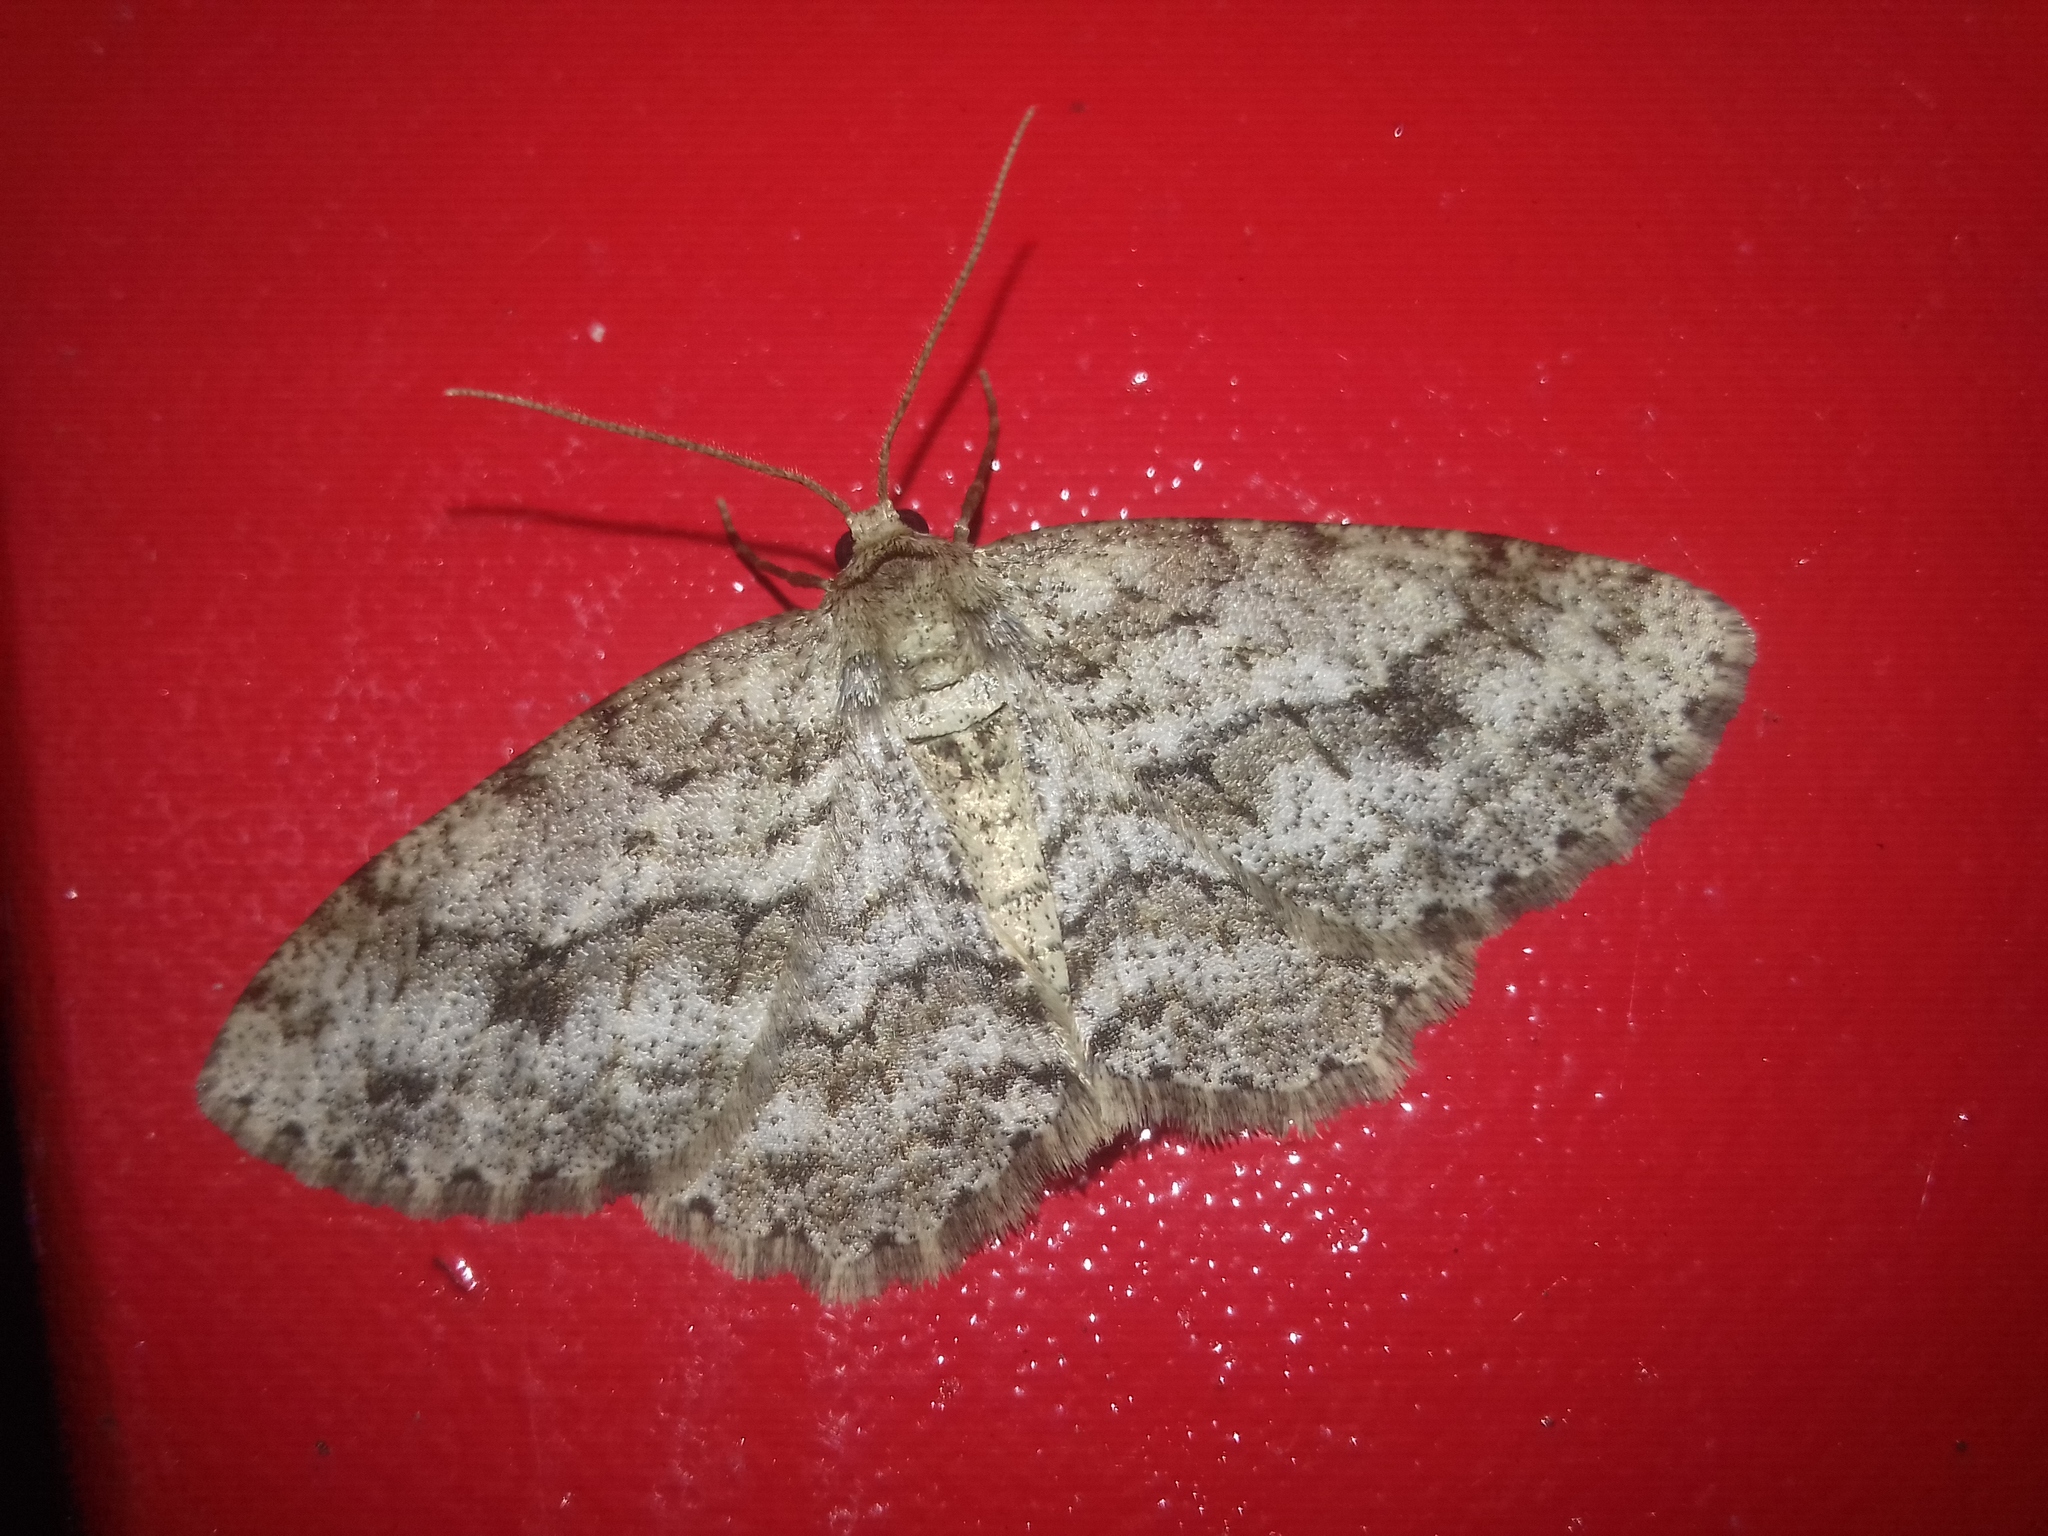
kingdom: Animalia
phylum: Arthropoda
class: Insecta
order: Lepidoptera
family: Geometridae
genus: Ectropis
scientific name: Ectropis crepuscularia
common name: Engrailed
